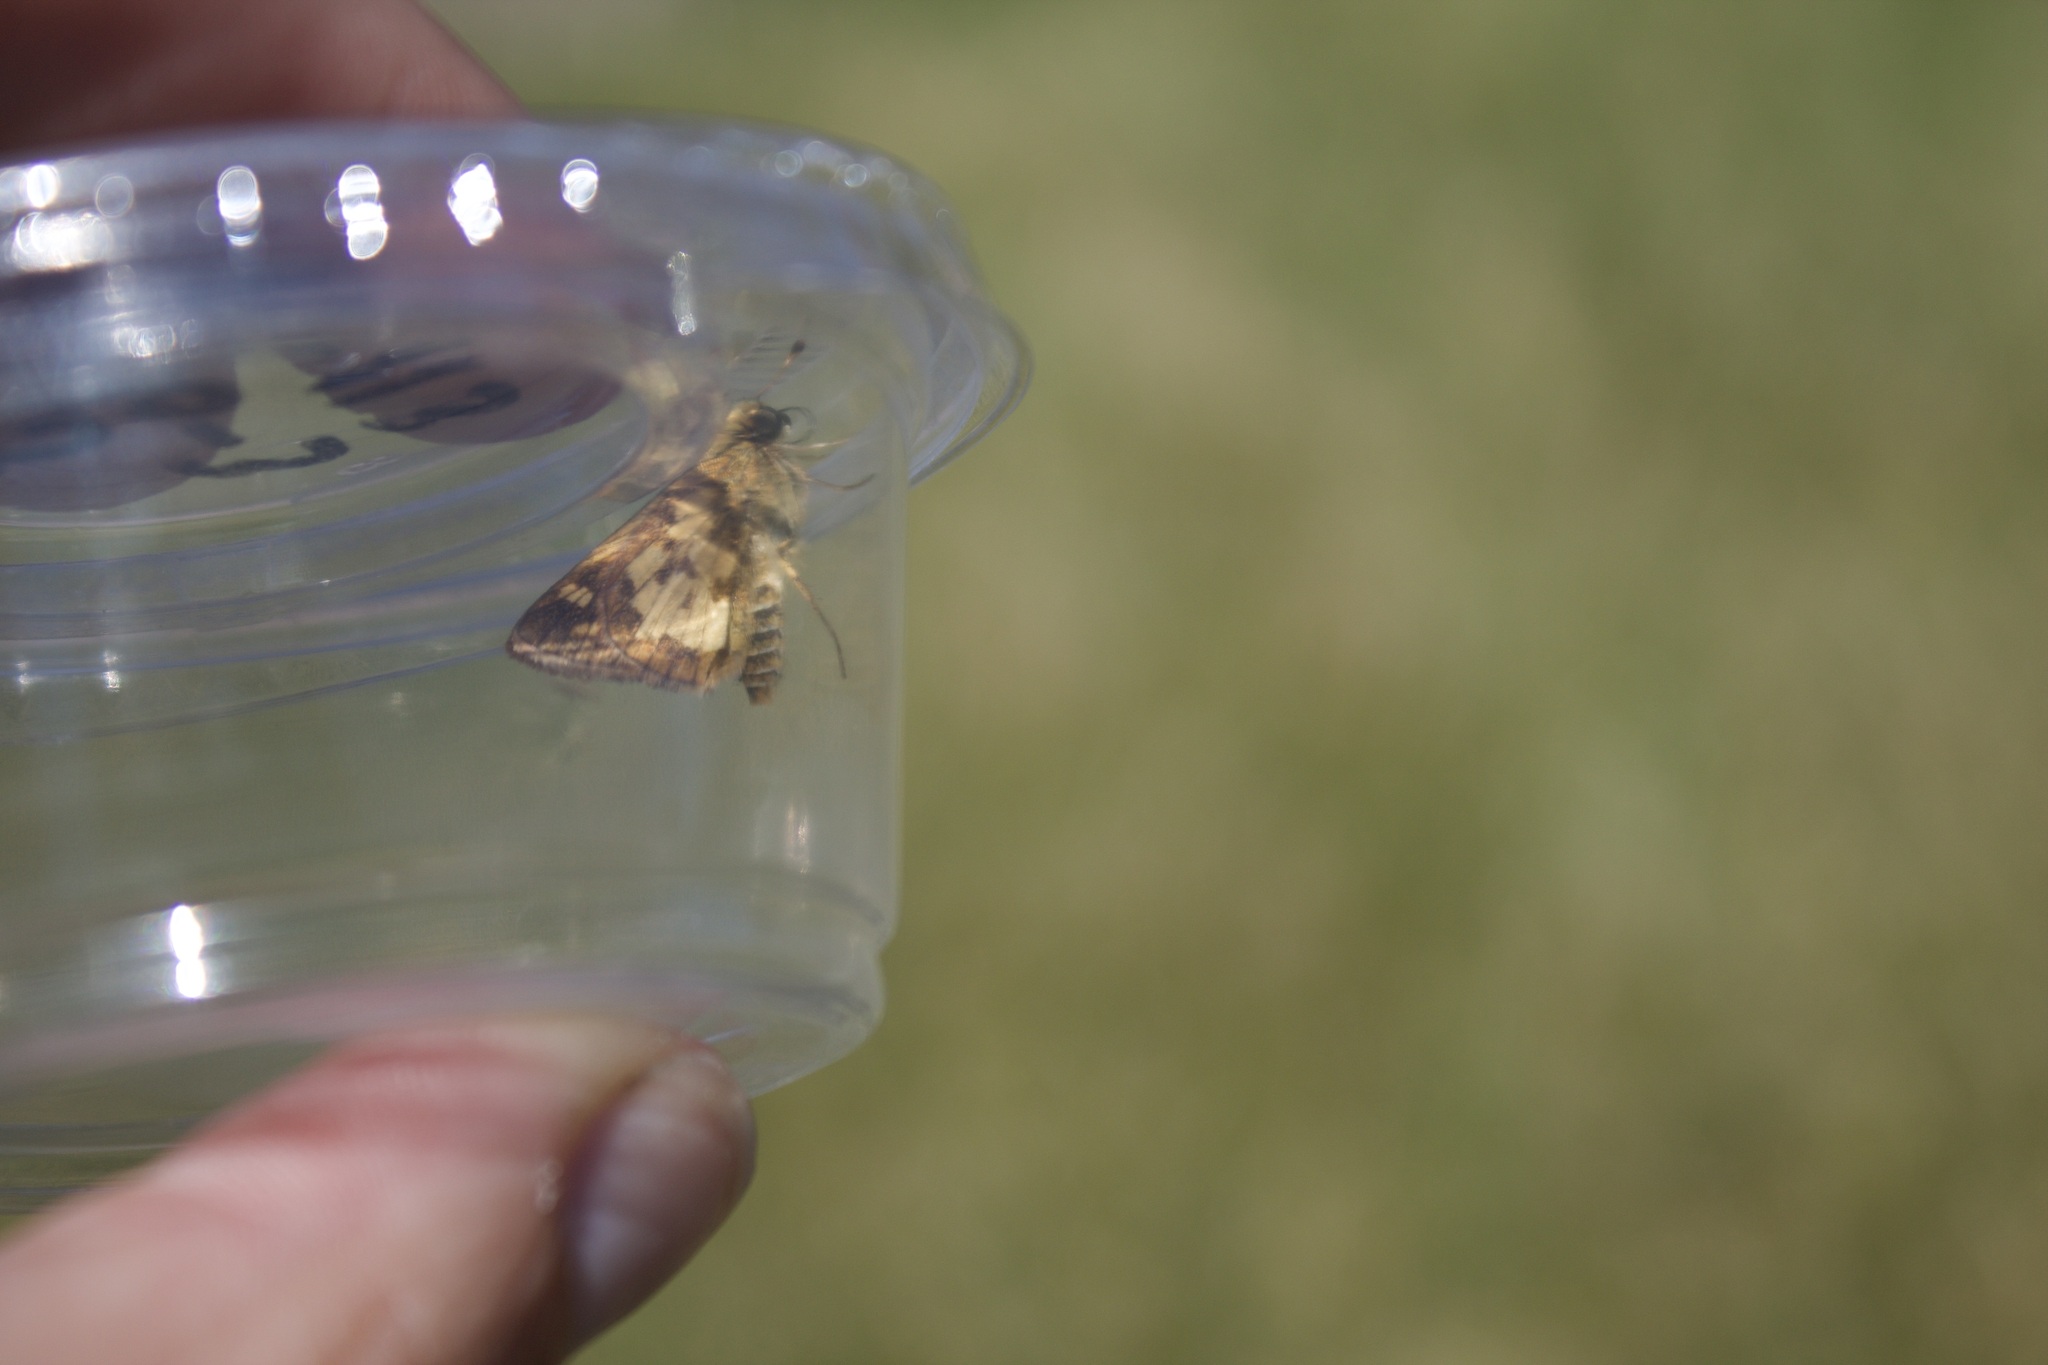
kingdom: Animalia
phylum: Arthropoda
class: Insecta
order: Lepidoptera
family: Hesperiidae
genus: Polites
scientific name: Polites coras
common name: Peck's skipper
